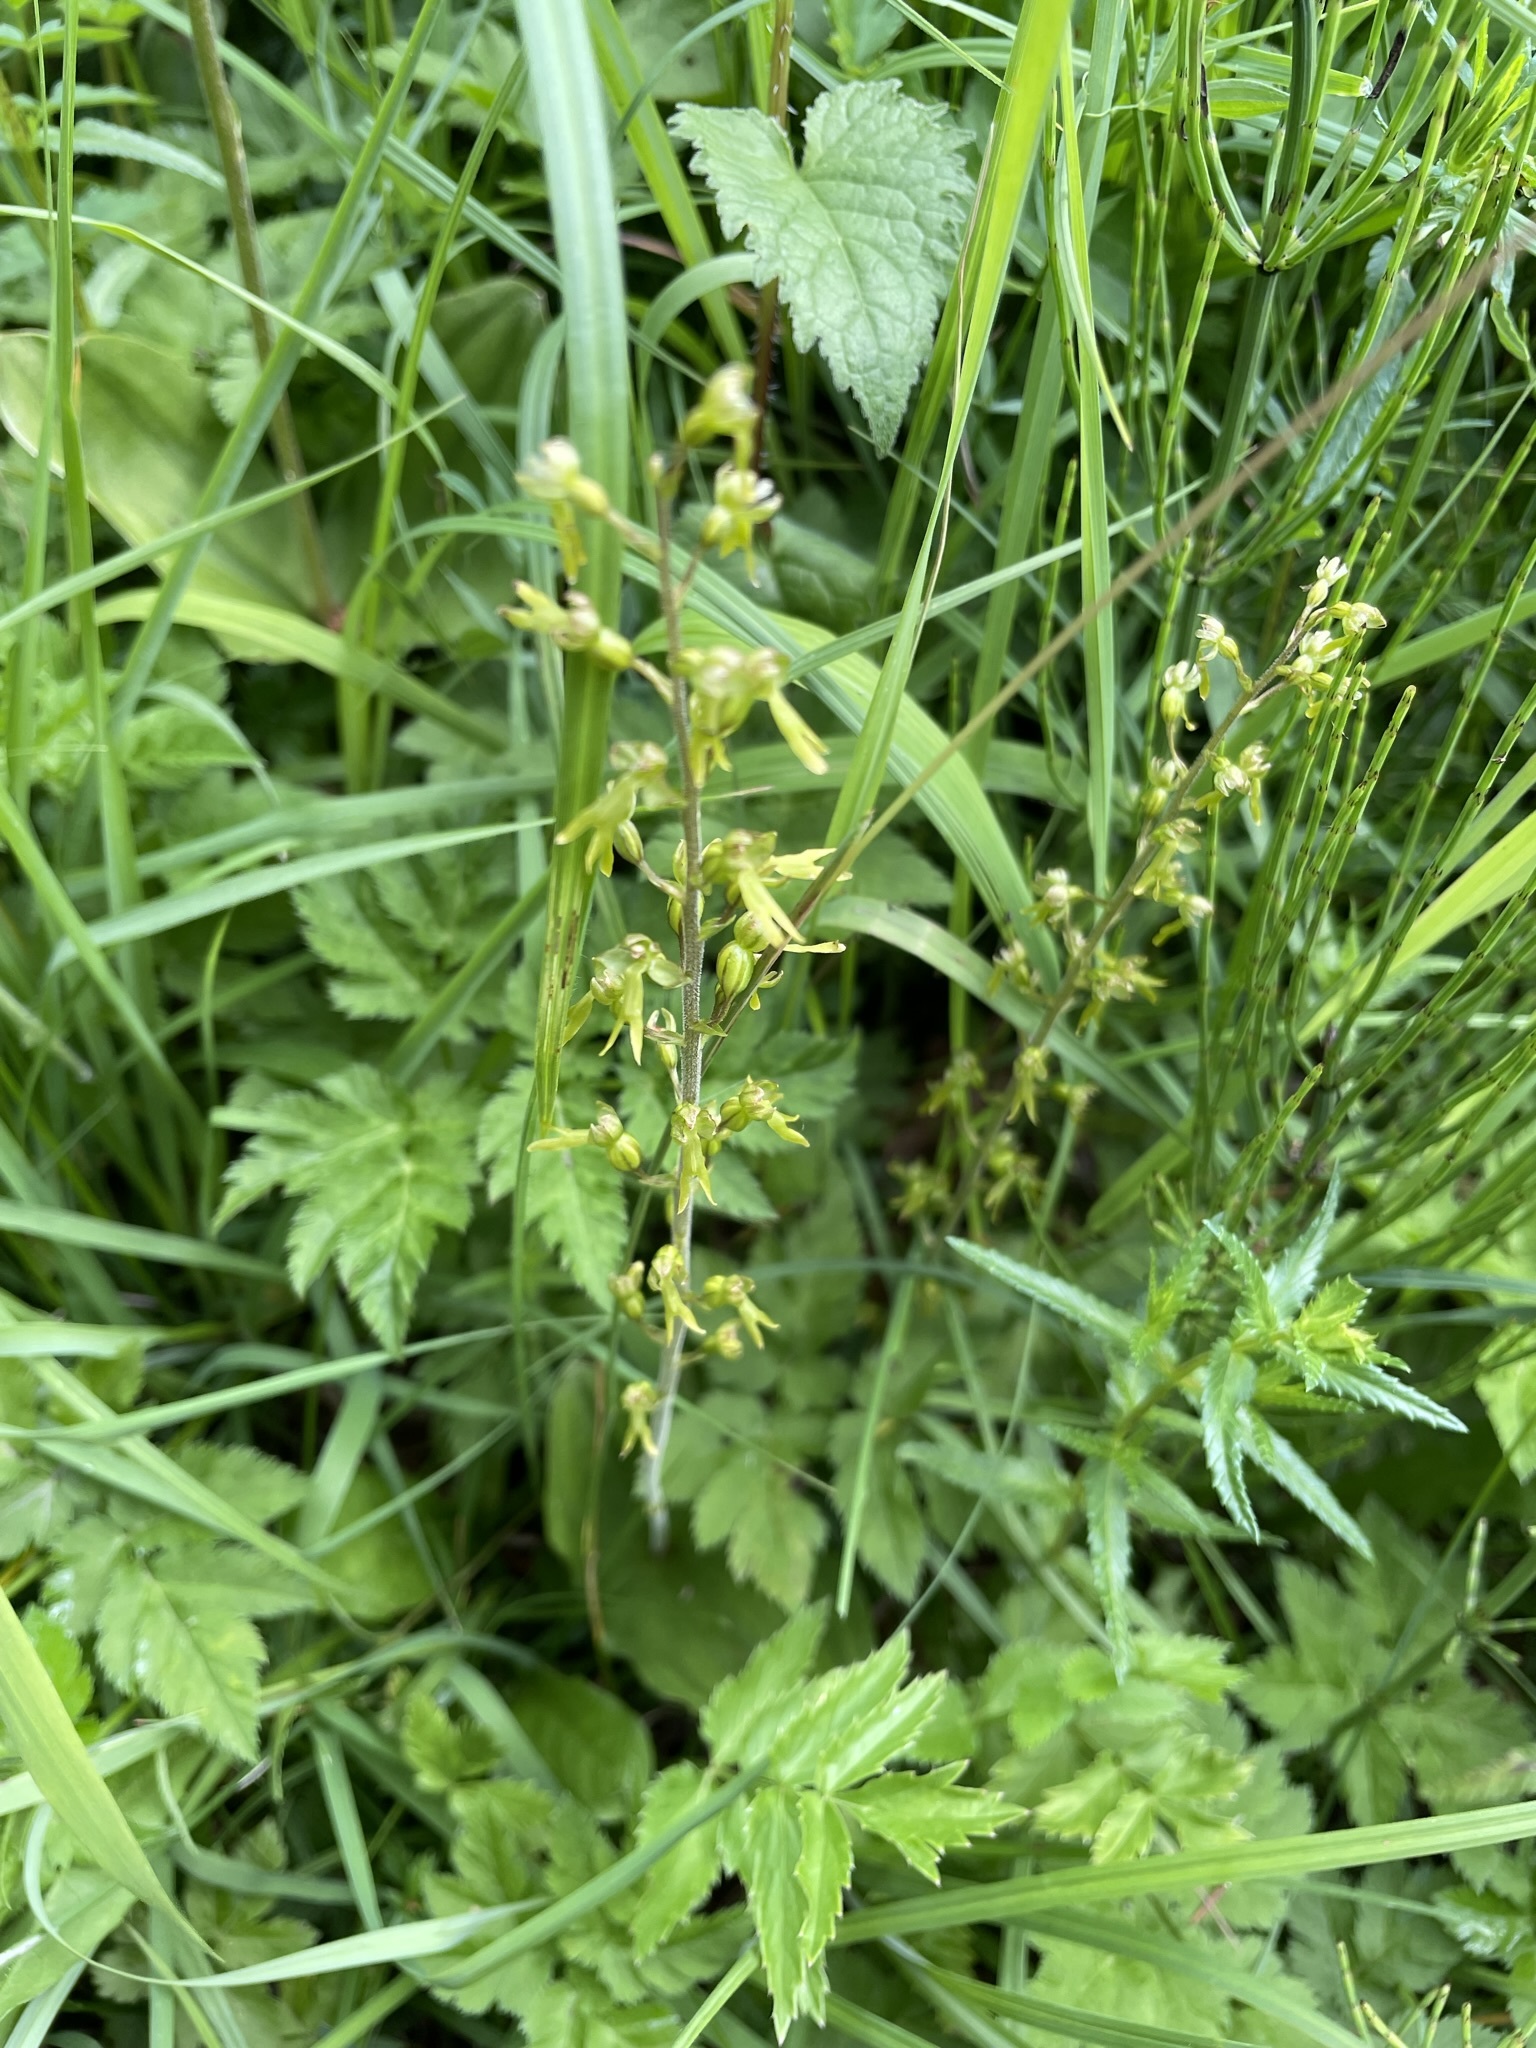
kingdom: Plantae
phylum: Tracheophyta
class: Liliopsida
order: Asparagales
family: Orchidaceae
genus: Neottia
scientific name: Neottia ovata
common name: Common twayblade
